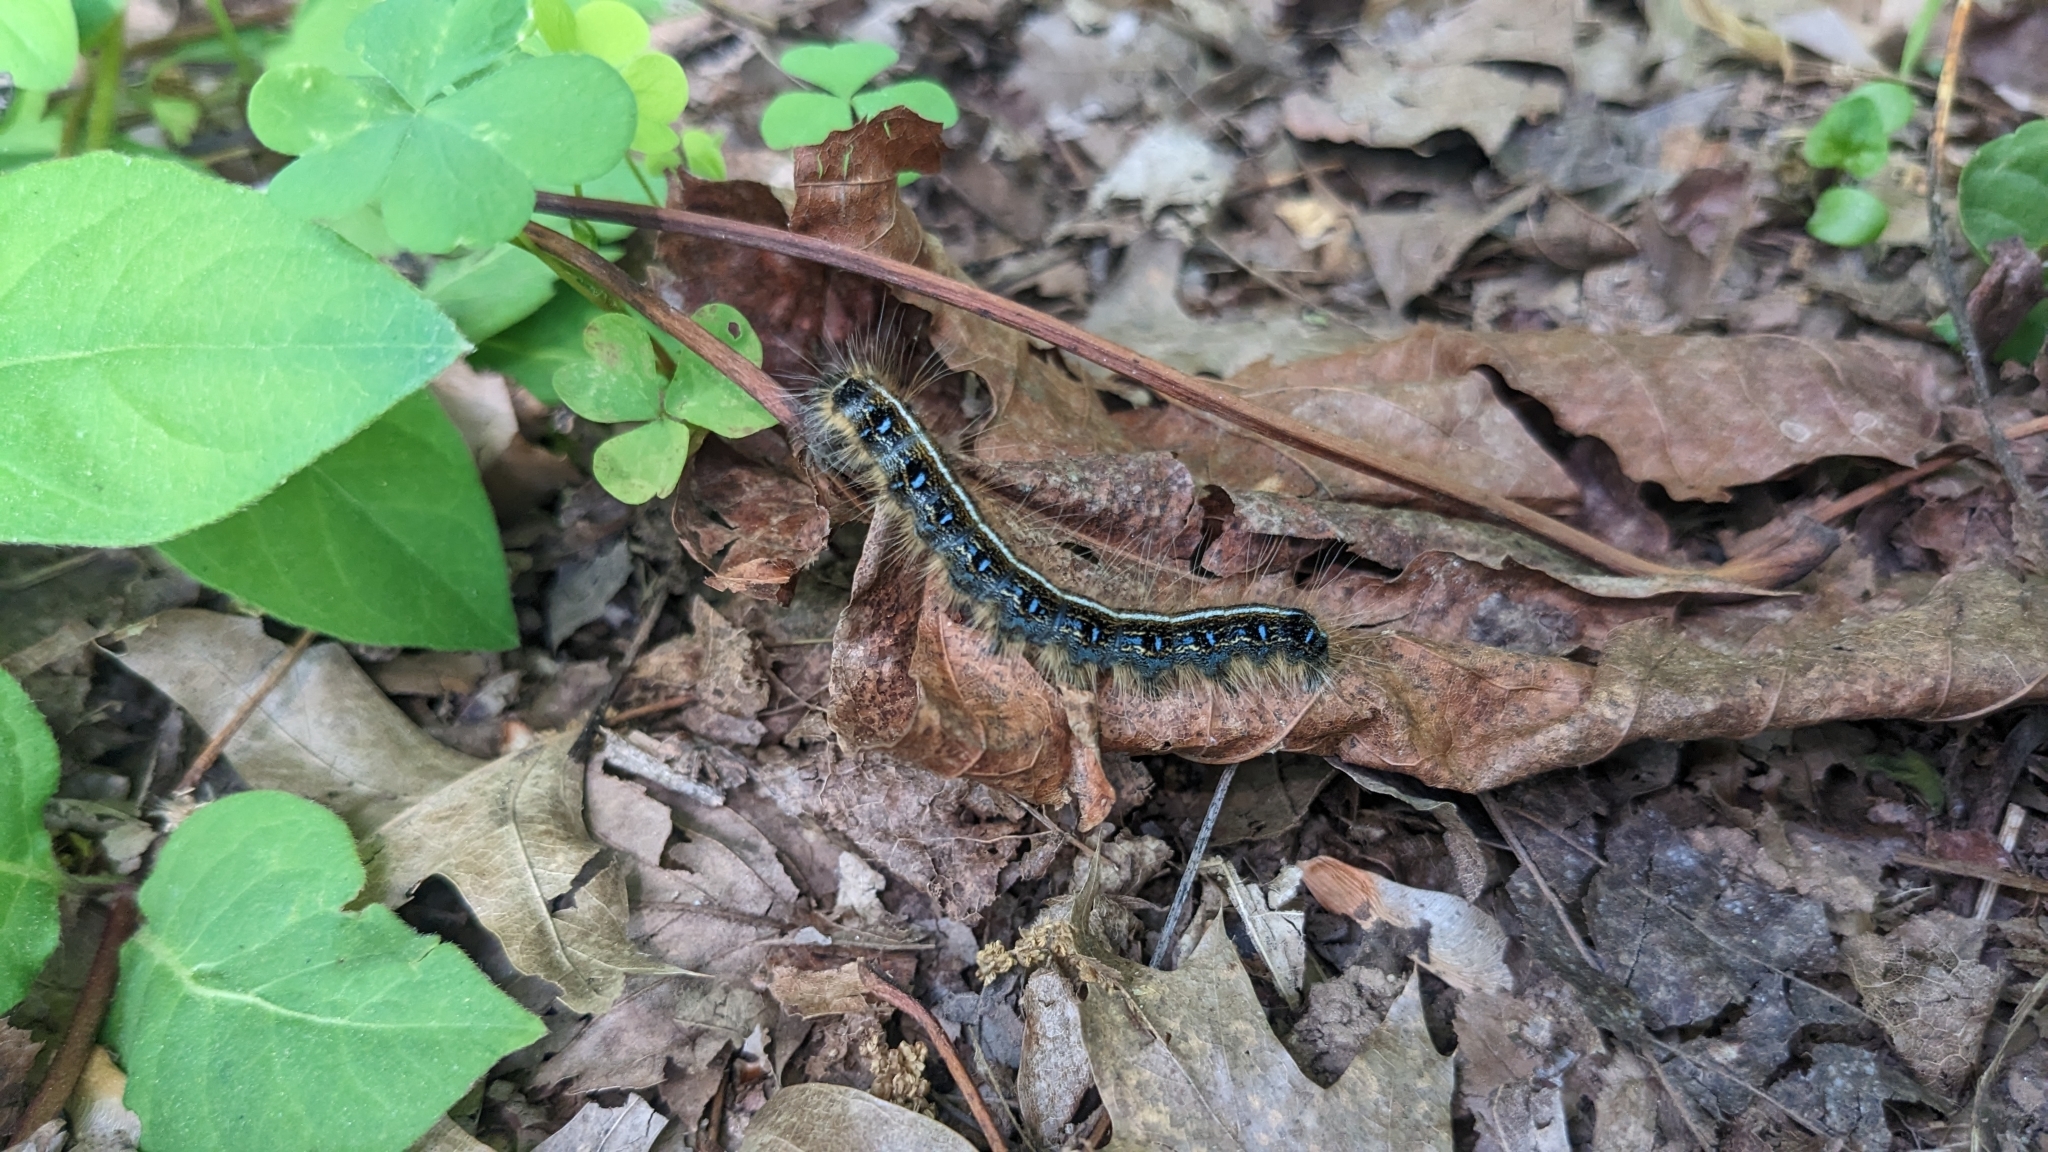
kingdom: Animalia
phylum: Arthropoda
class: Insecta
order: Lepidoptera
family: Lasiocampidae
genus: Malacosoma
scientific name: Malacosoma americana
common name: Eastern tent caterpillar moth
